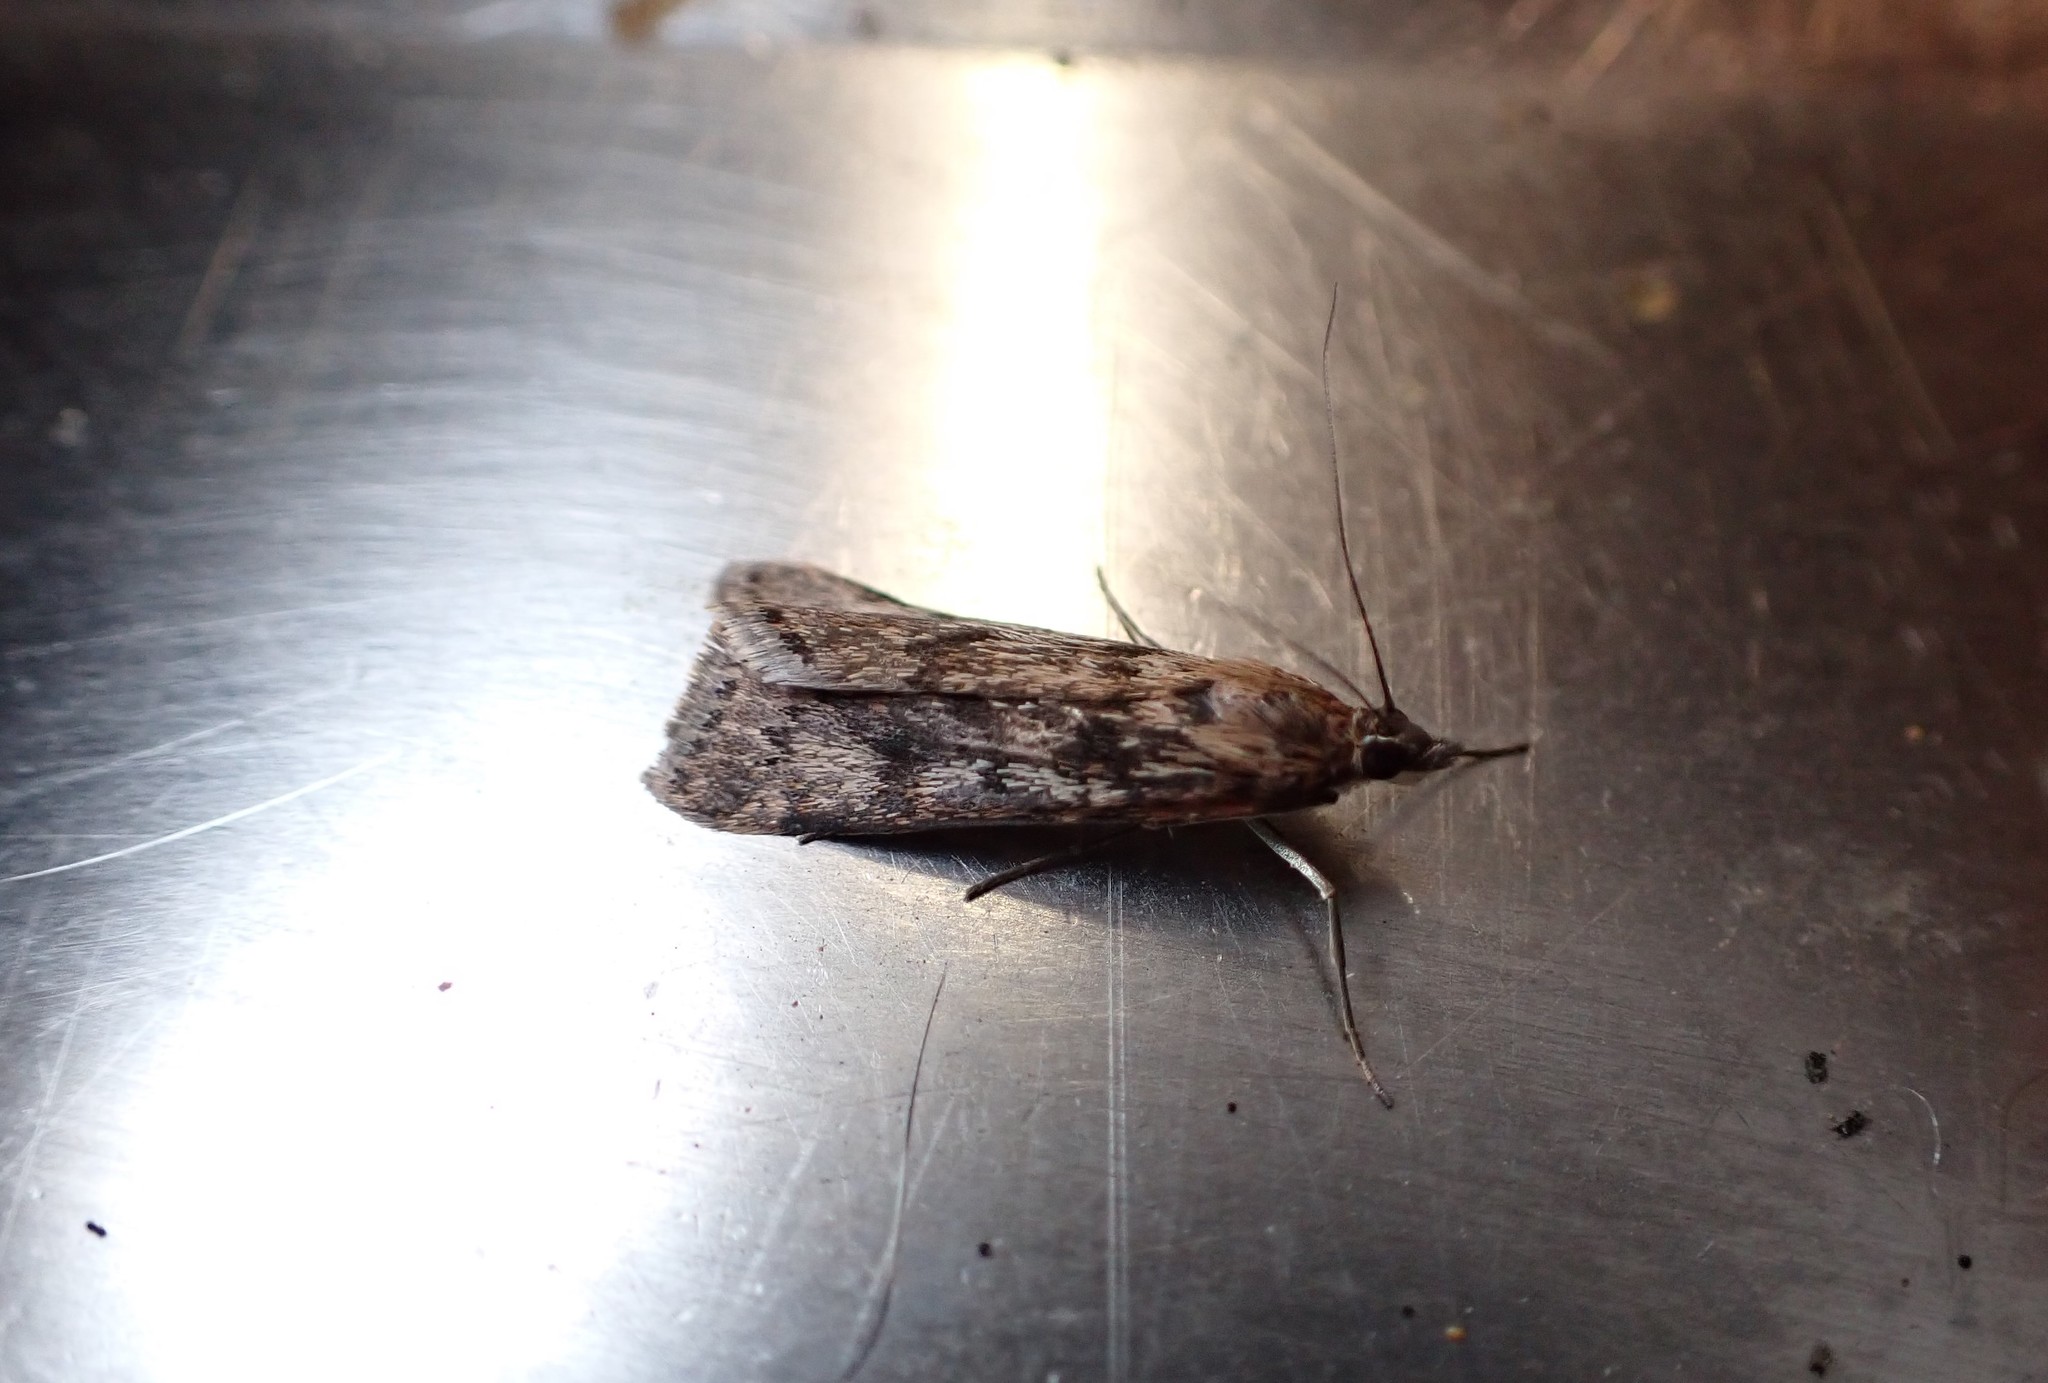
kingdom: Animalia
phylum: Arthropoda
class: Insecta
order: Lepidoptera
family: Crambidae
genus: Achyra
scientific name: Achyra affinitalis
